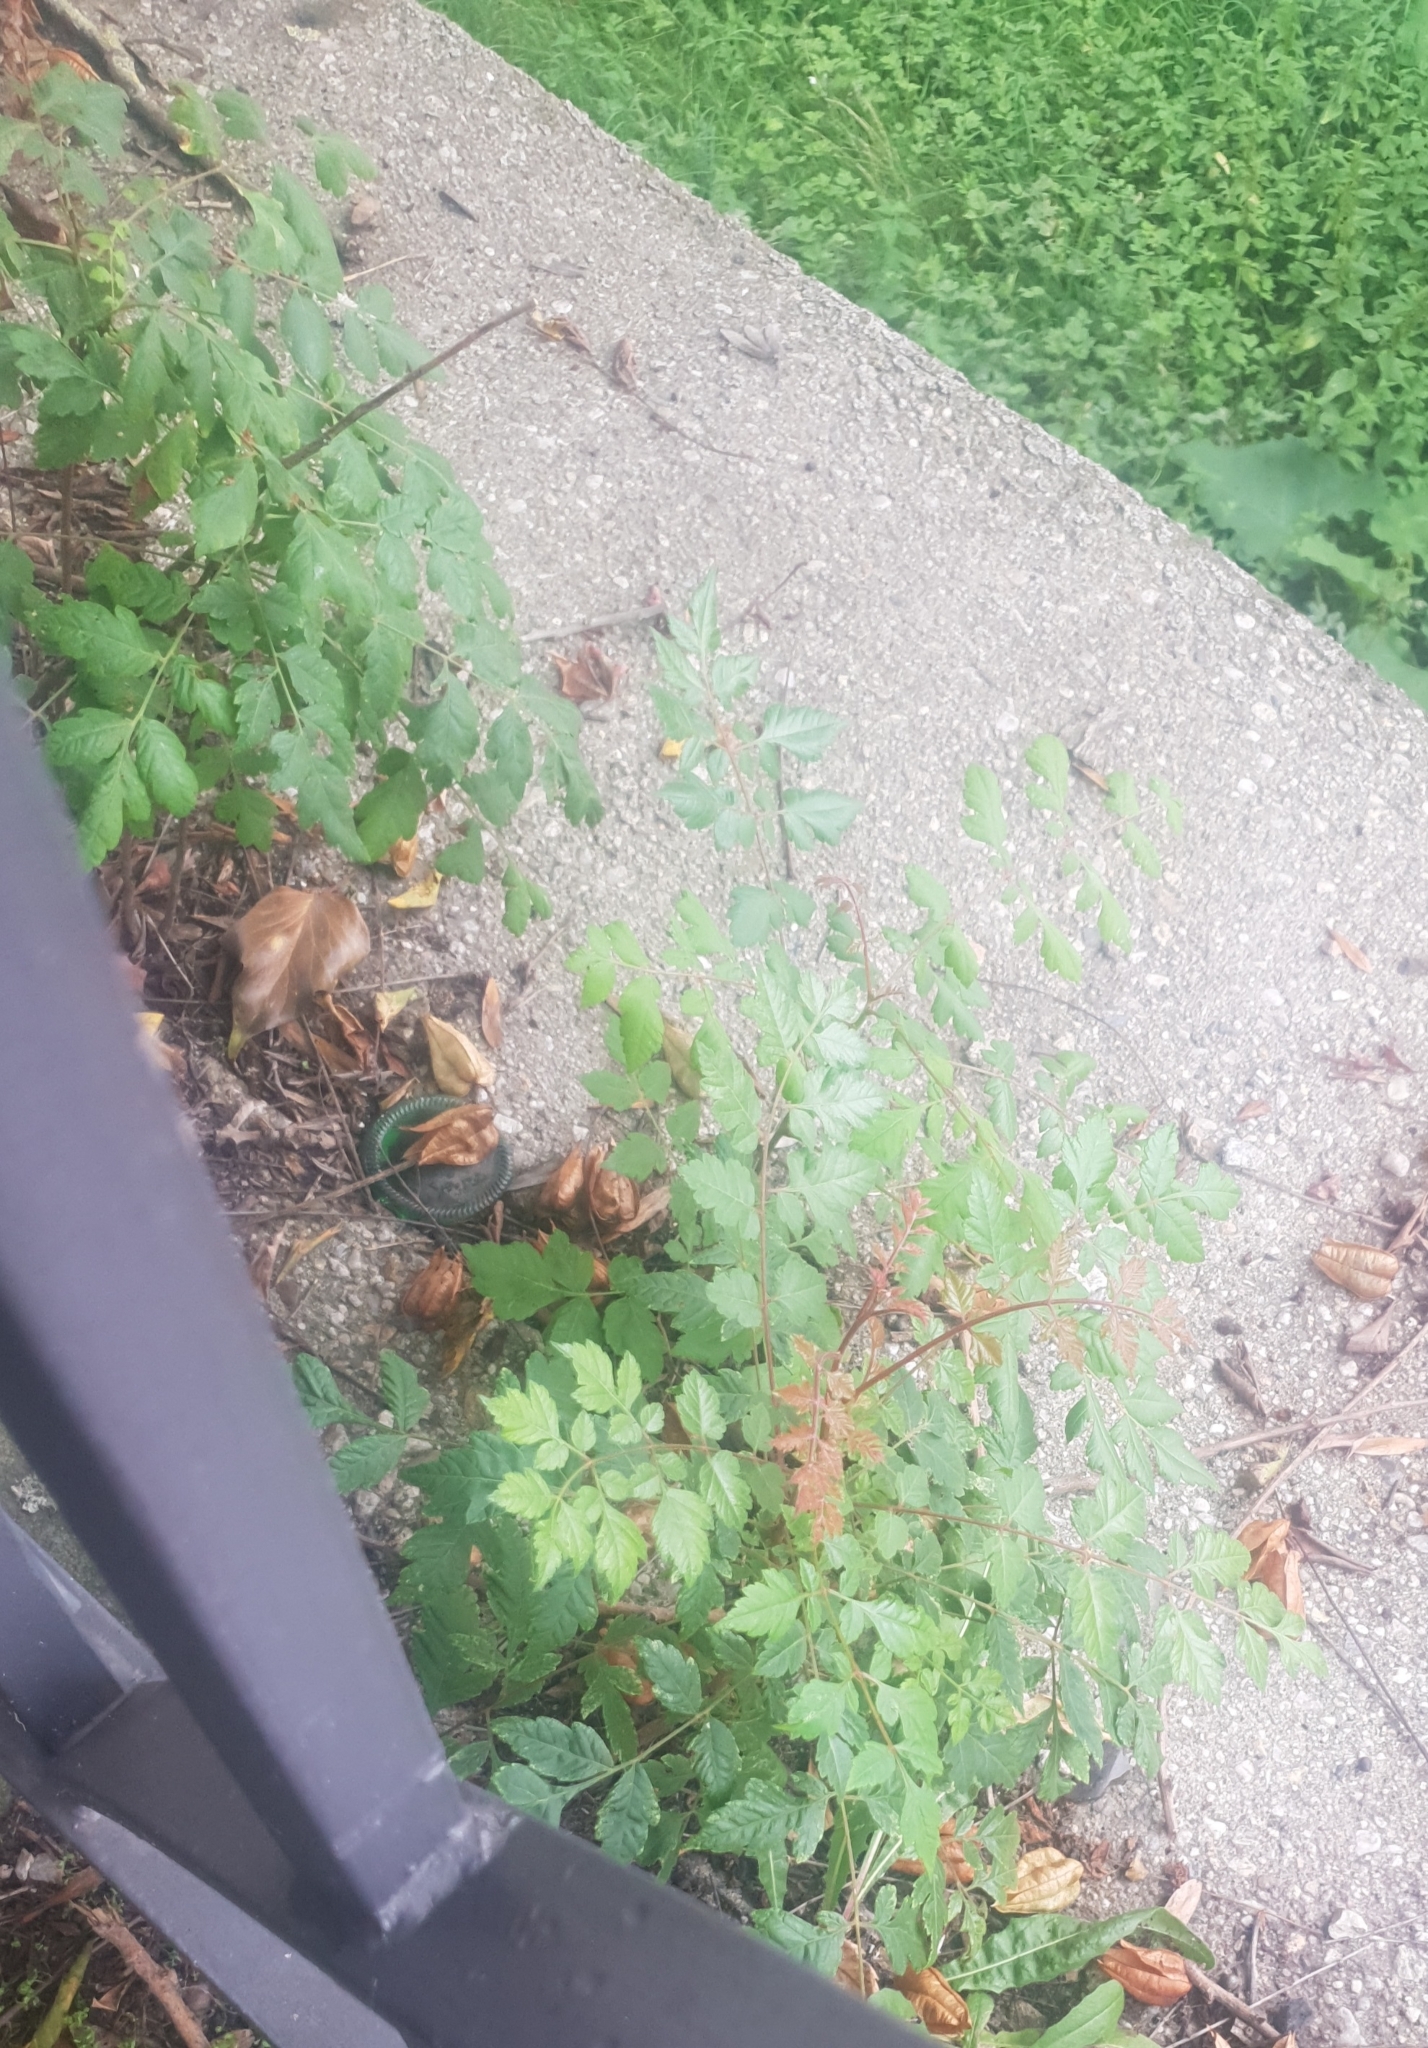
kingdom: Plantae
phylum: Tracheophyta
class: Magnoliopsida
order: Sapindales
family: Sapindaceae
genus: Koelreuteria
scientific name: Koelreuteria paniculata
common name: Pride-of-india
